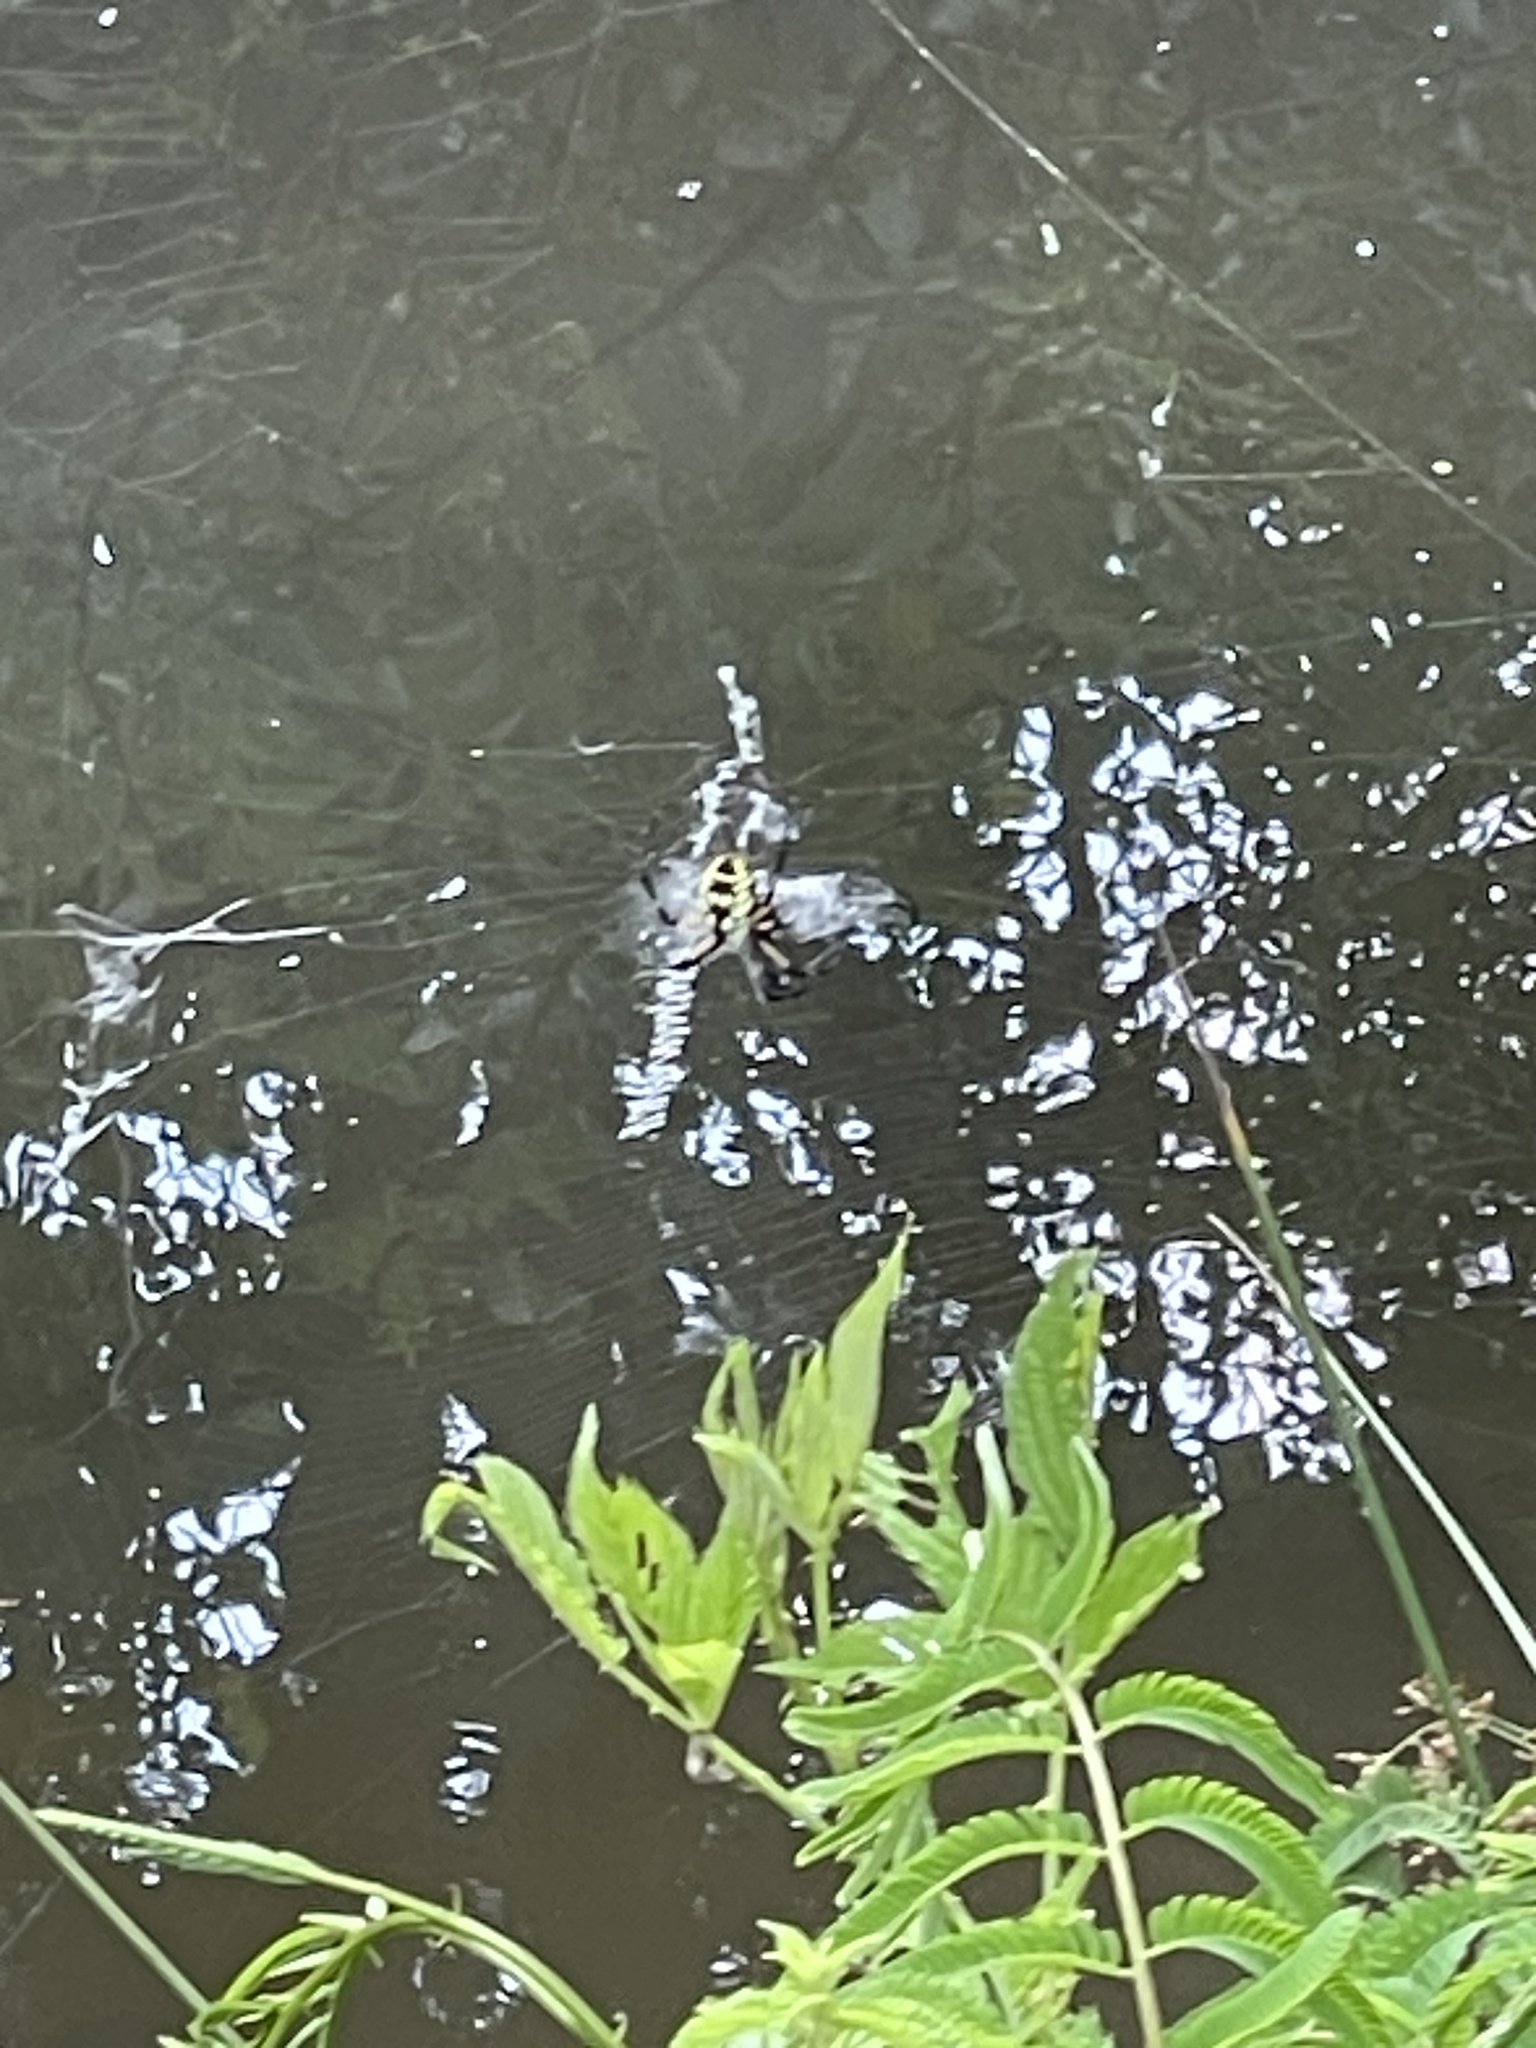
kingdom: Animalia
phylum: Arthropoda
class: Arachnida
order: Araneae
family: Araneidae
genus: Argiope
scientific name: Argiope aurantia
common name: Orb weavers
